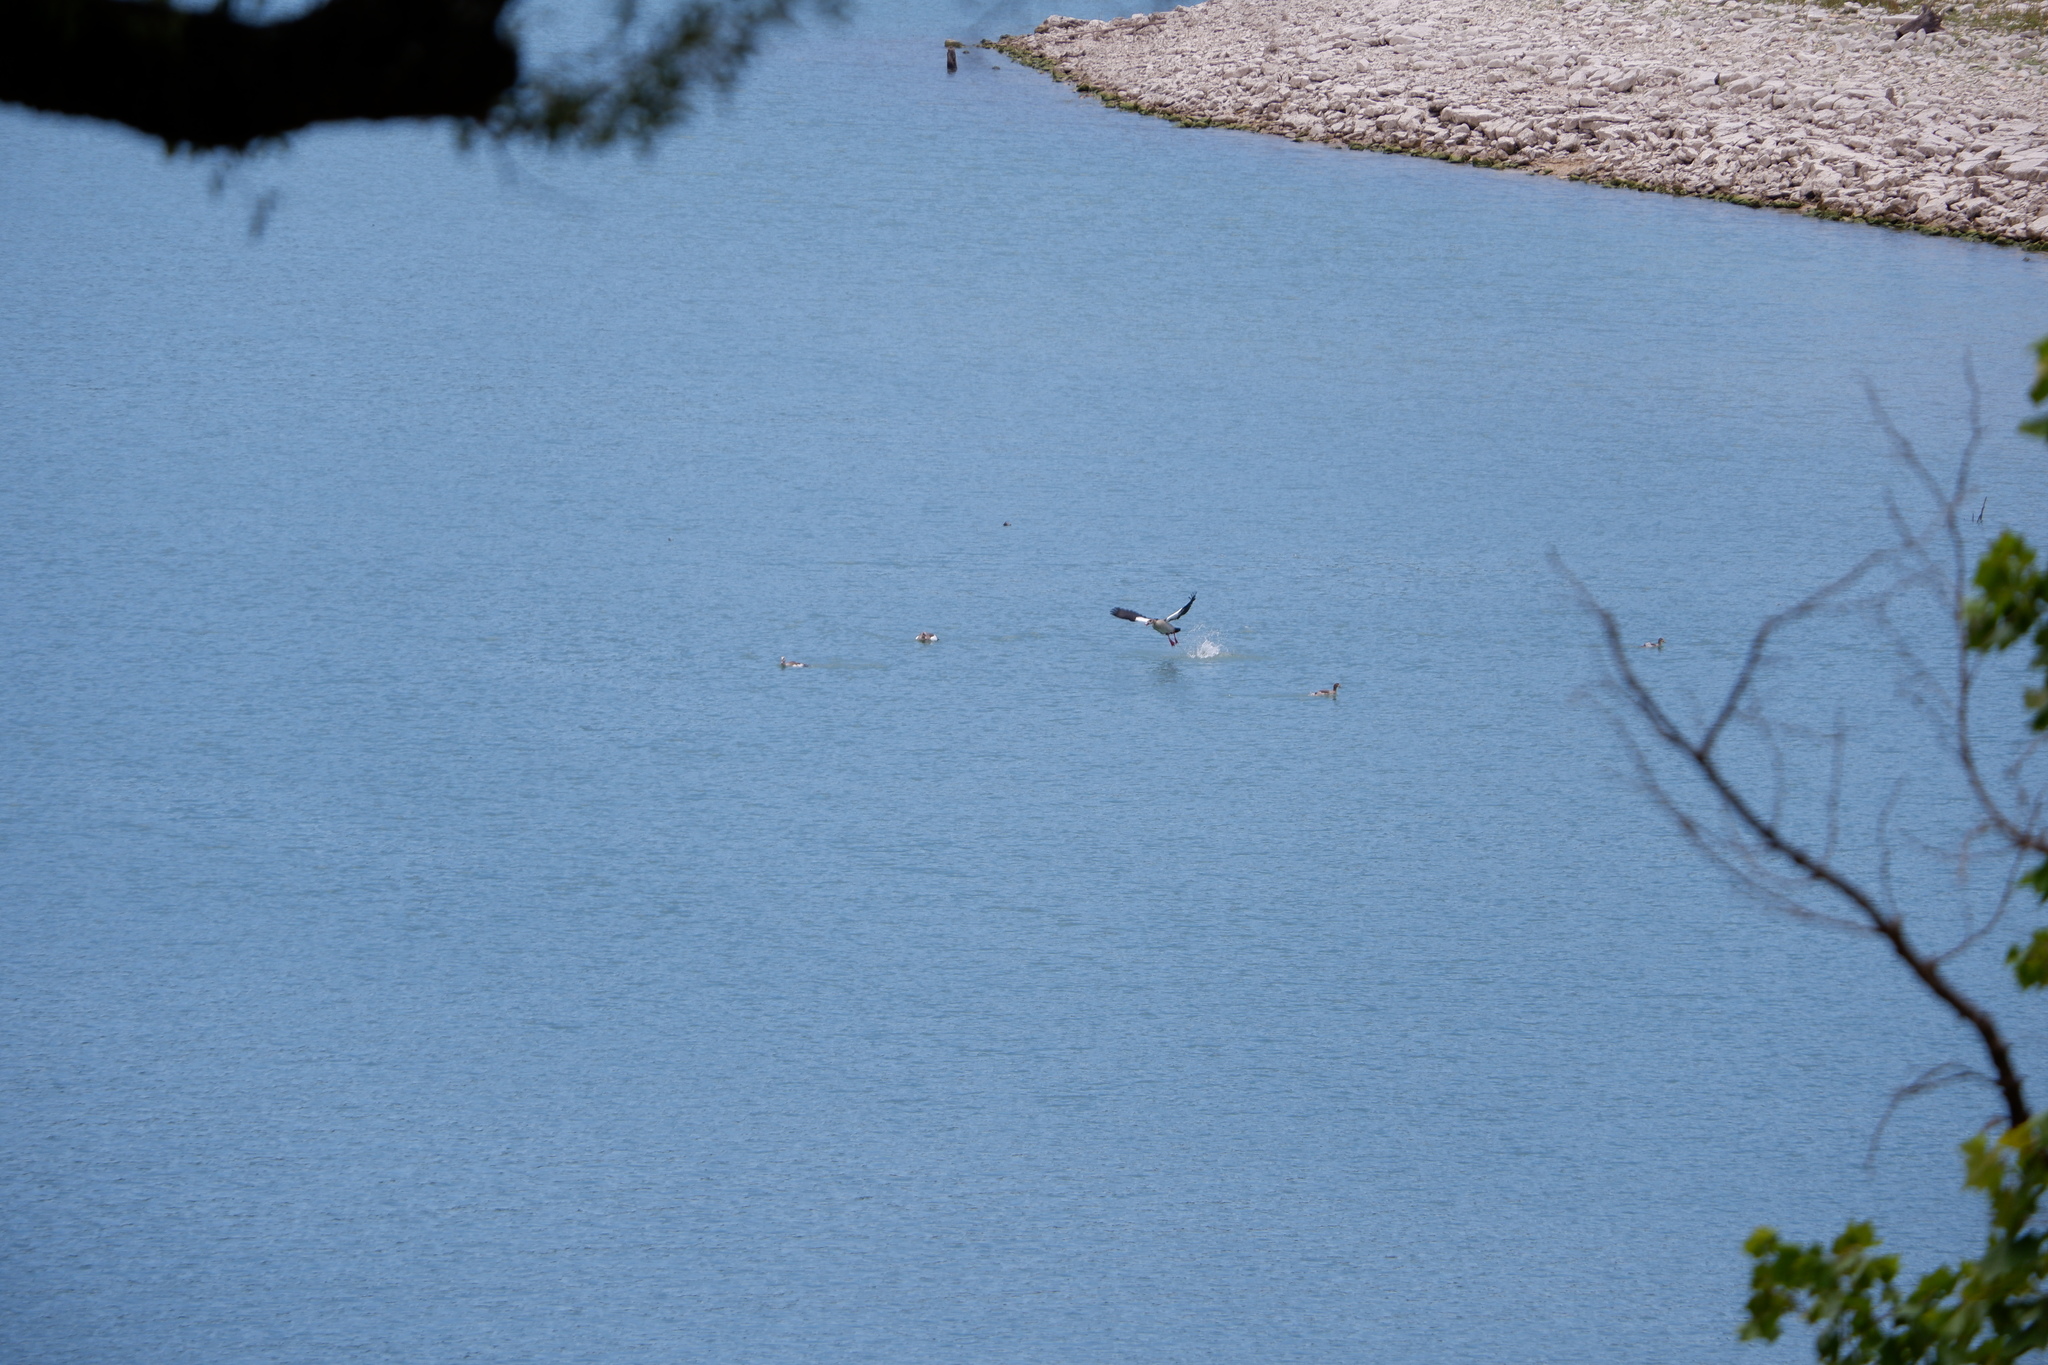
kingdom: Animalia
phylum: Chordata
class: Aves
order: Anseriformes
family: Anatidae
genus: Alopochen
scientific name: Alopochen aegyptiaca
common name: Egyptian goose
